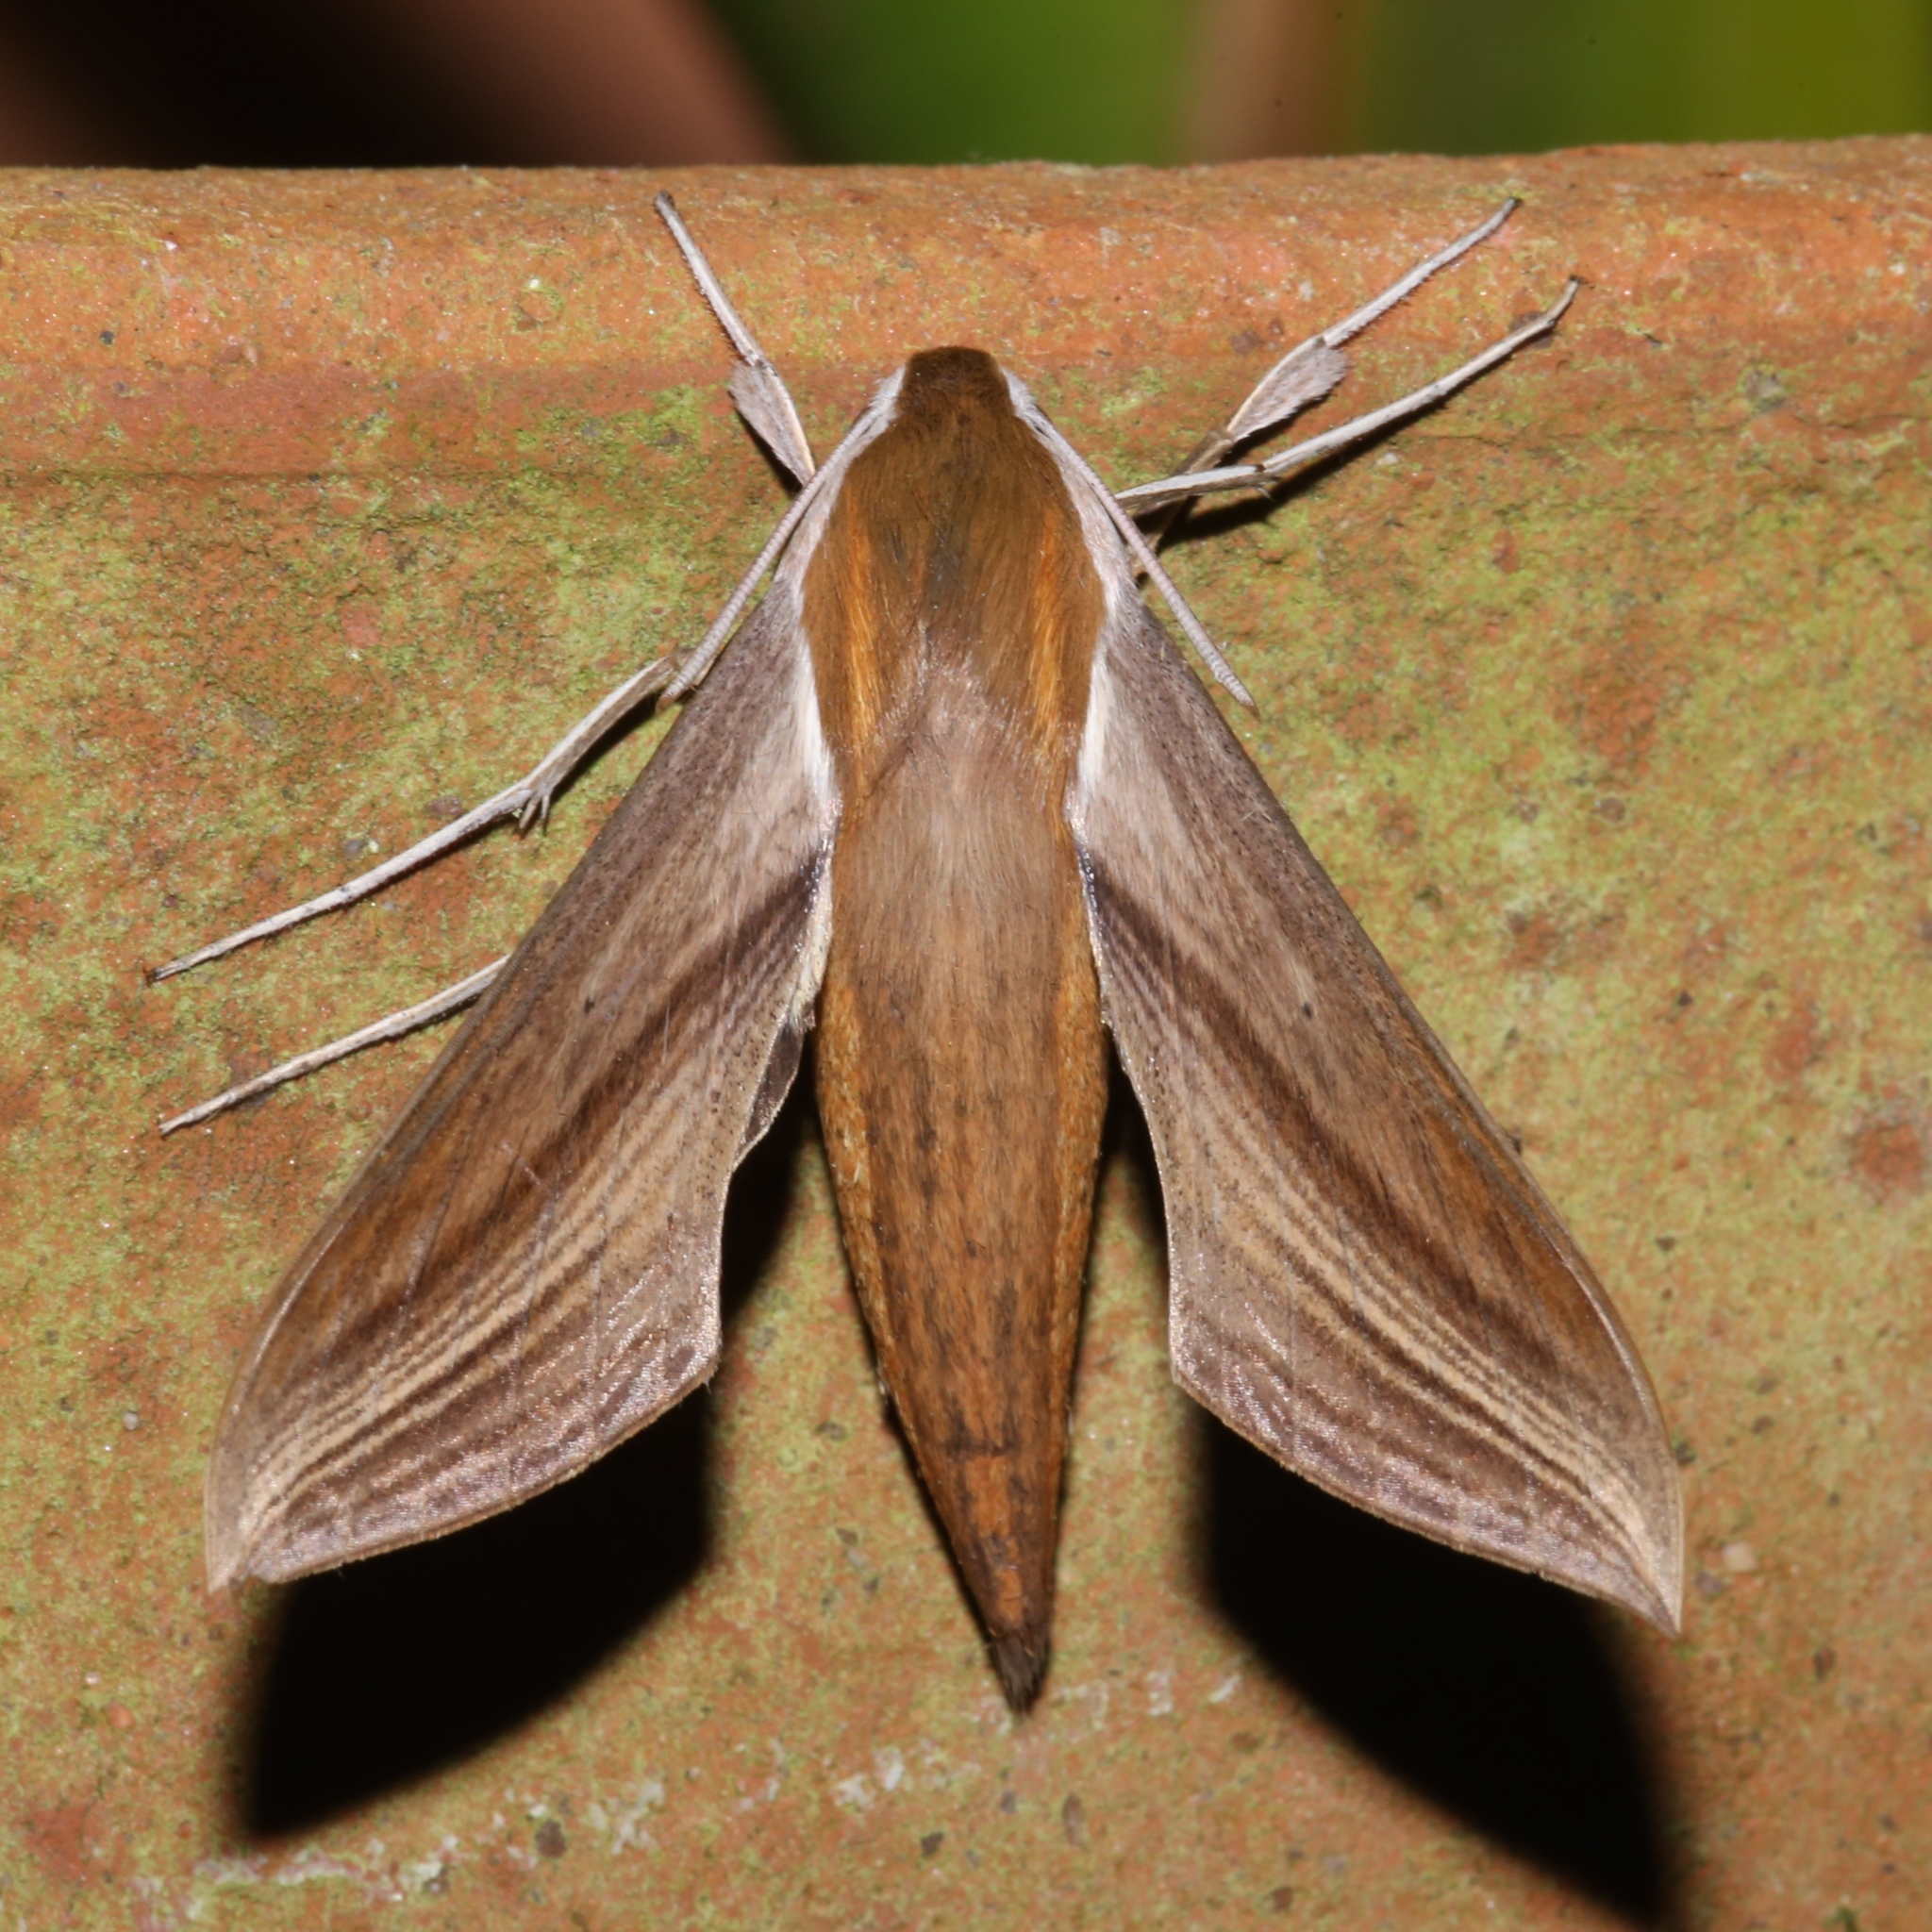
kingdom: Animalia
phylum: Arthropoda
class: Insecta
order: Lepidoptera
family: Sphingidae
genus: Xylophanes
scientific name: Xylophanes tersa
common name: Tersa sphinx
